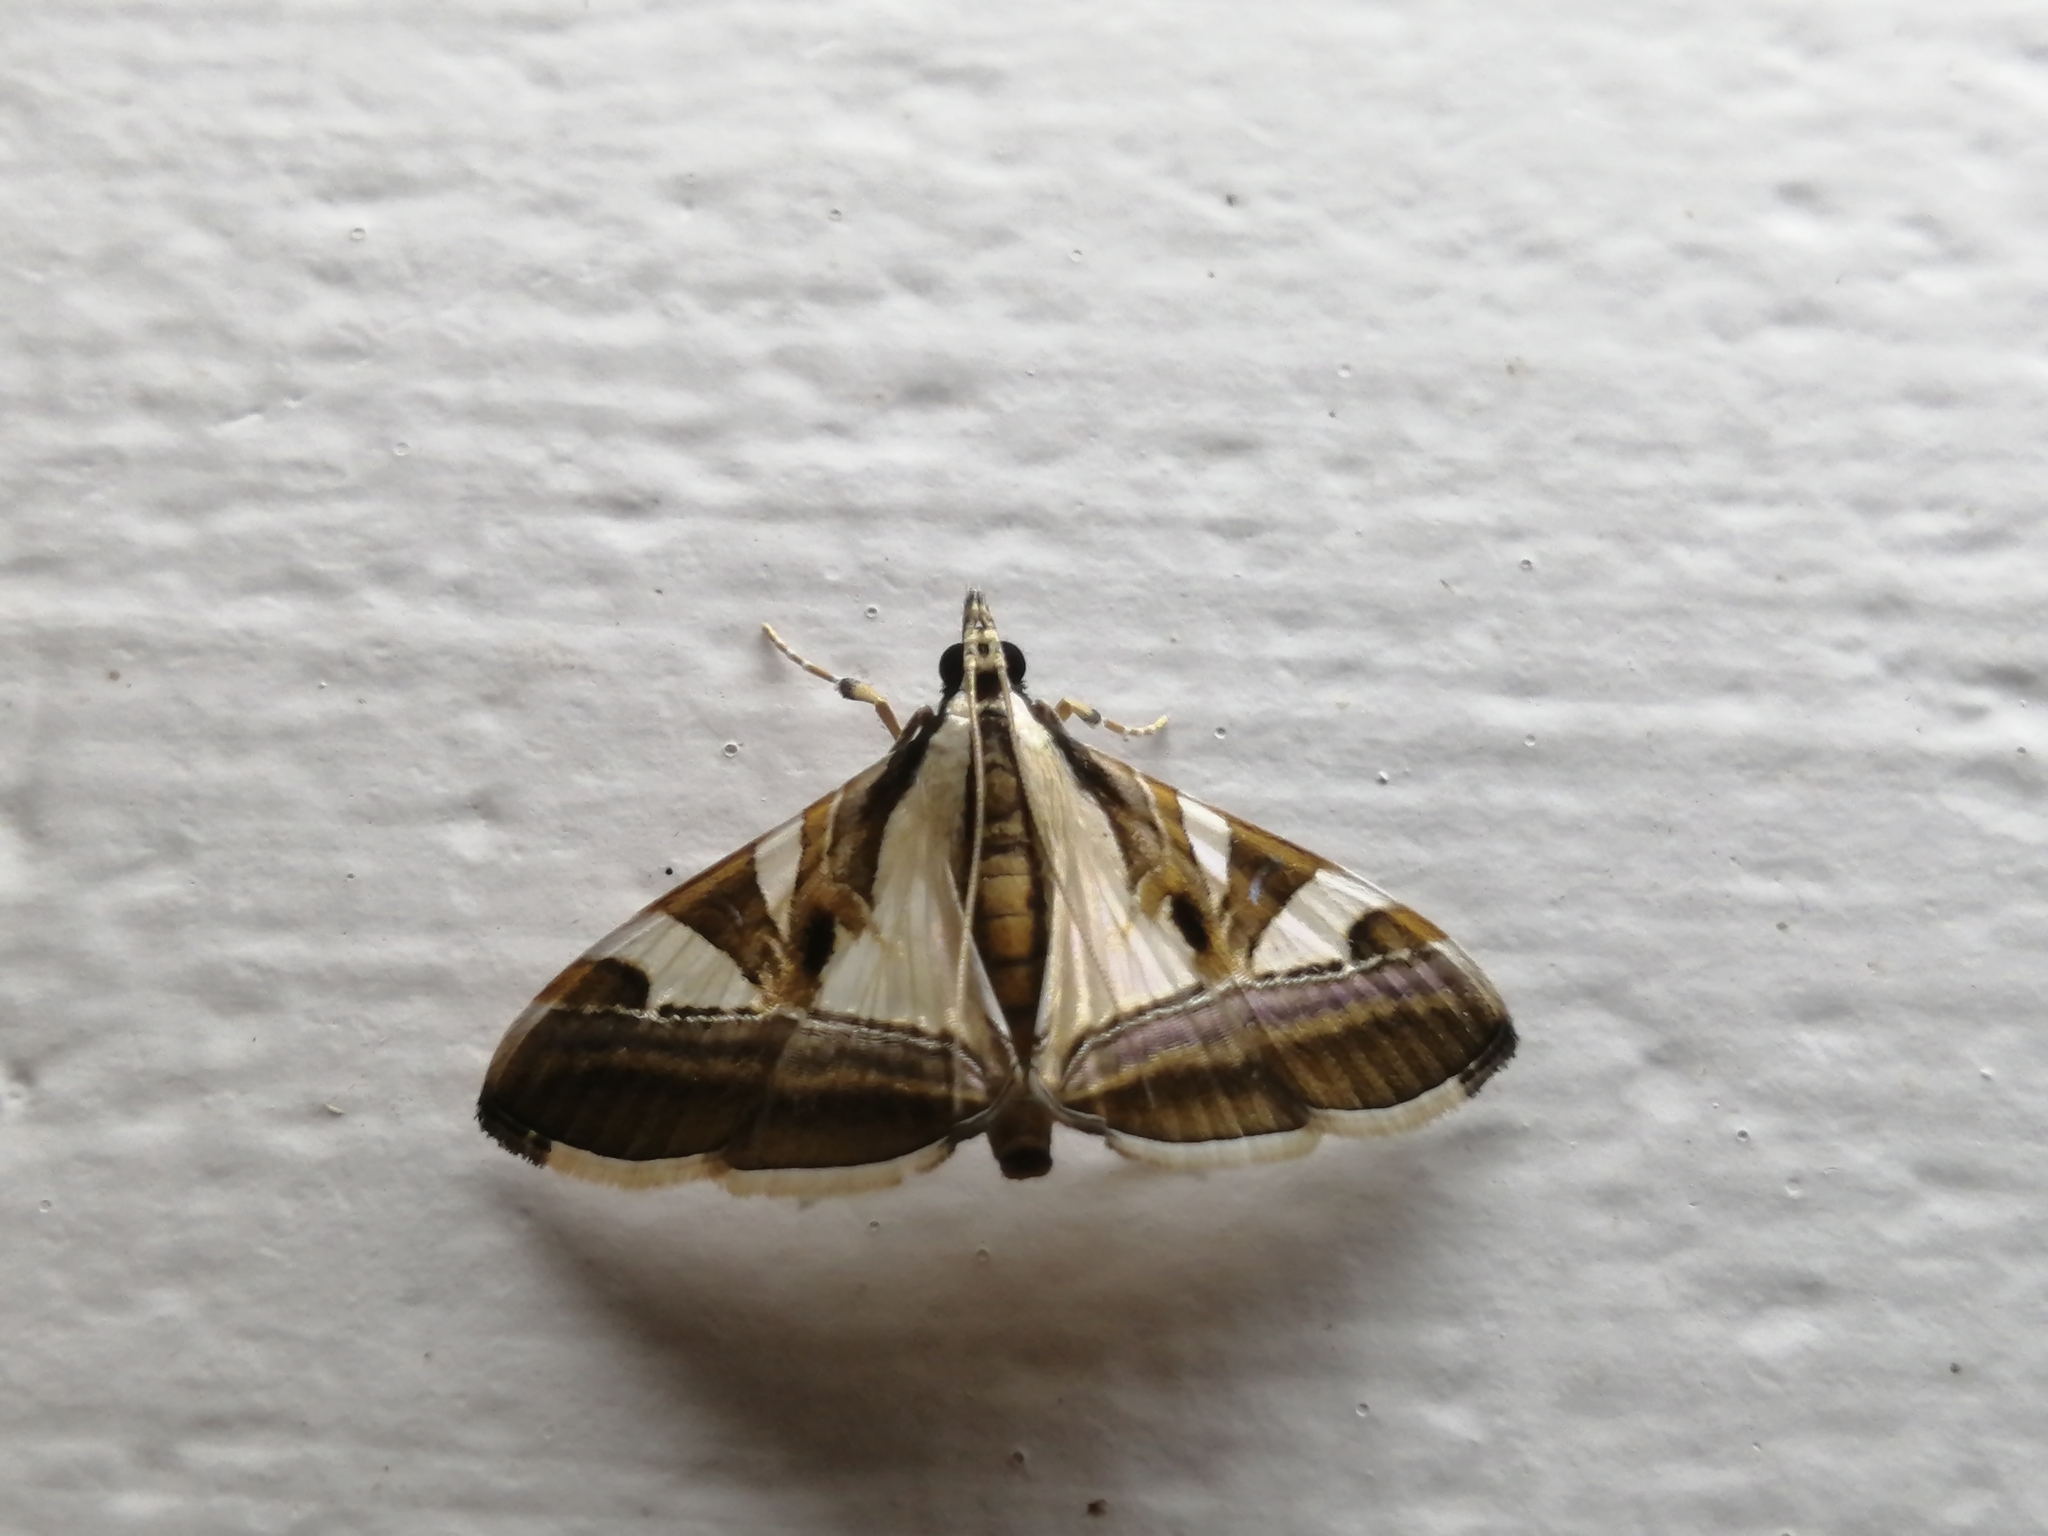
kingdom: Animalia
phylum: Arthropoda
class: Insecta
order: Lepidoptera
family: Crambidae
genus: Agrioglypta
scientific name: Agrioglypta itysalis
